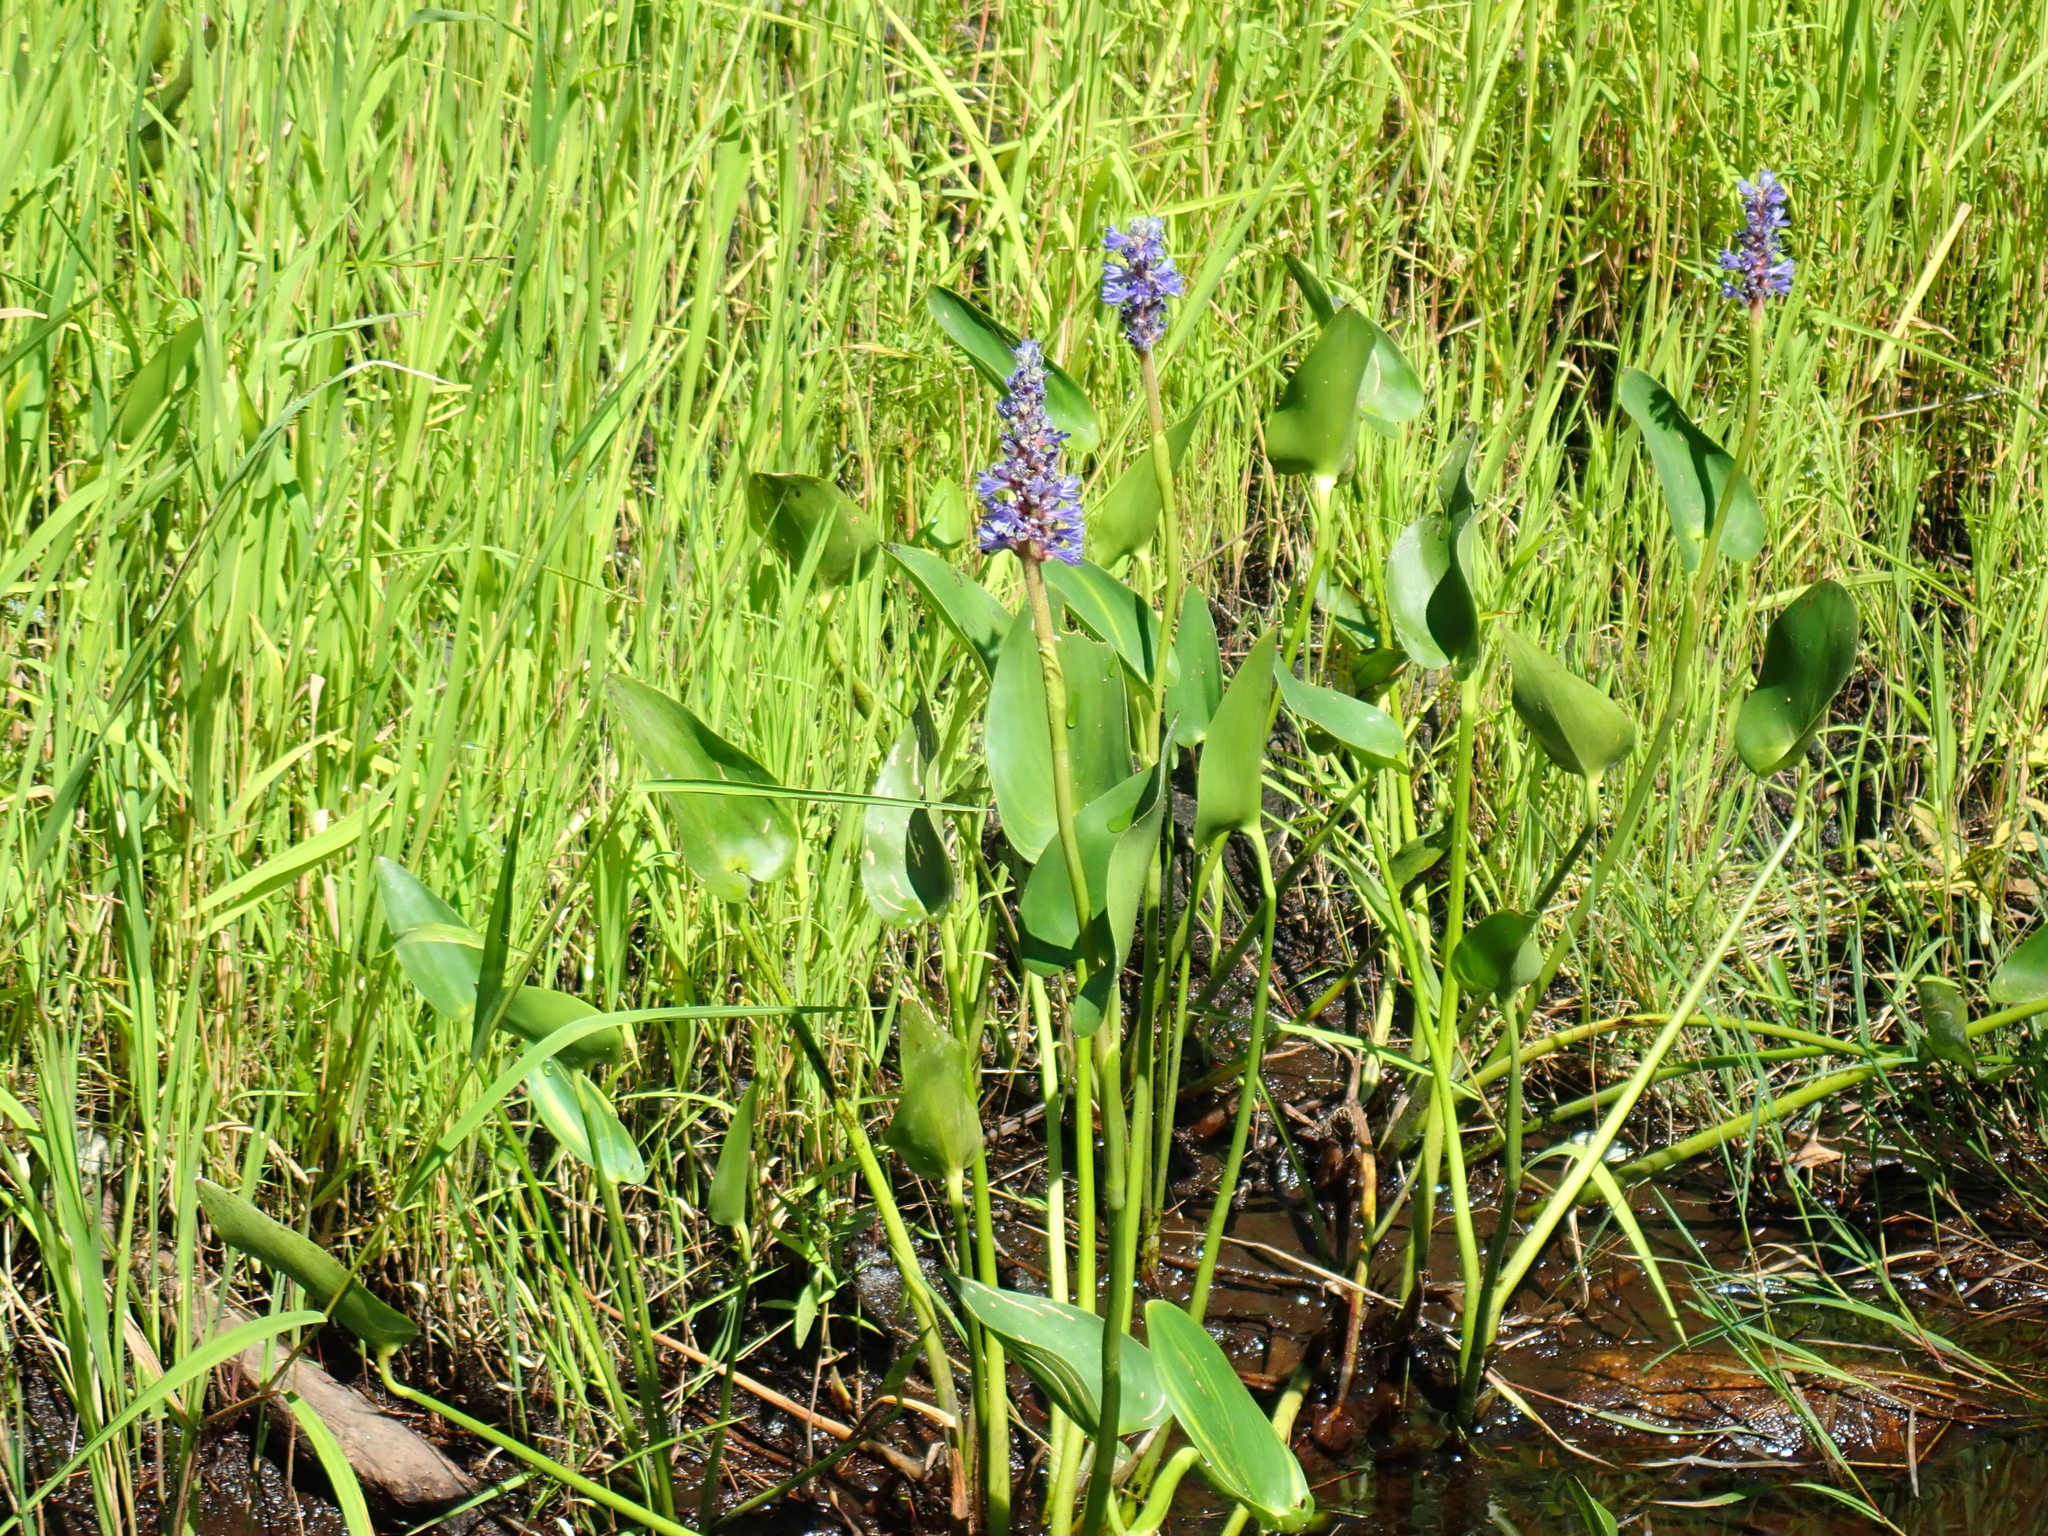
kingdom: Plantae
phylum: Tracheophyta
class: Liliopsida
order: Commelinales
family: Pontederiaceae
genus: Pontederia
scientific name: Pontederia cordata
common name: Pickerelweed
